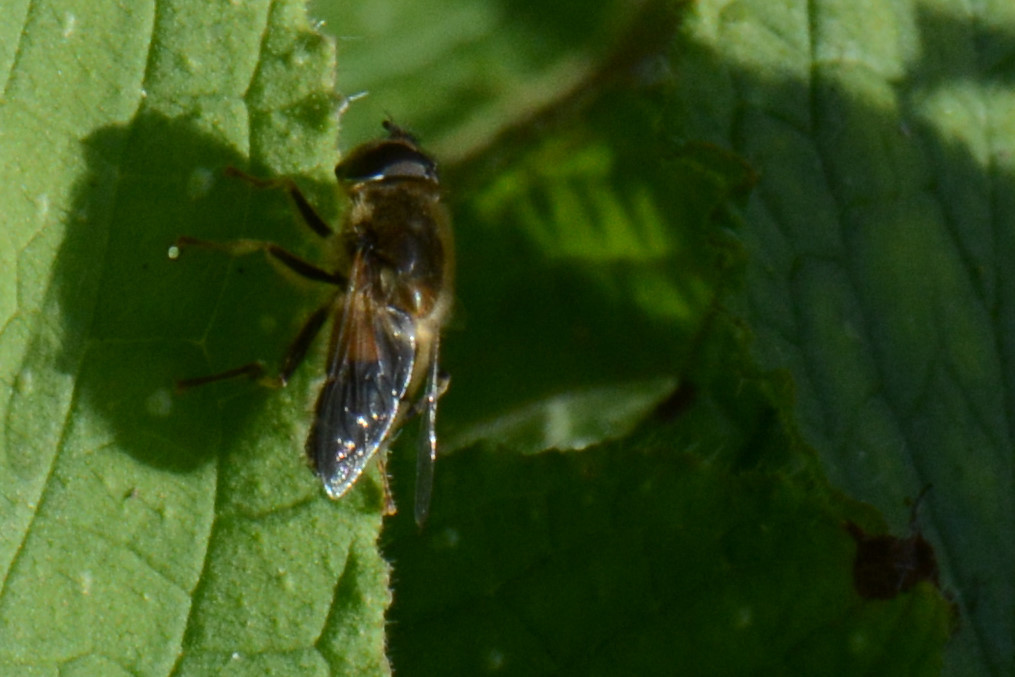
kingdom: Animalia
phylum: Arthropoda
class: Insecta
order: Diptera
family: Syrphidae
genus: Eristalis
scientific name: Eristalis pertinax
